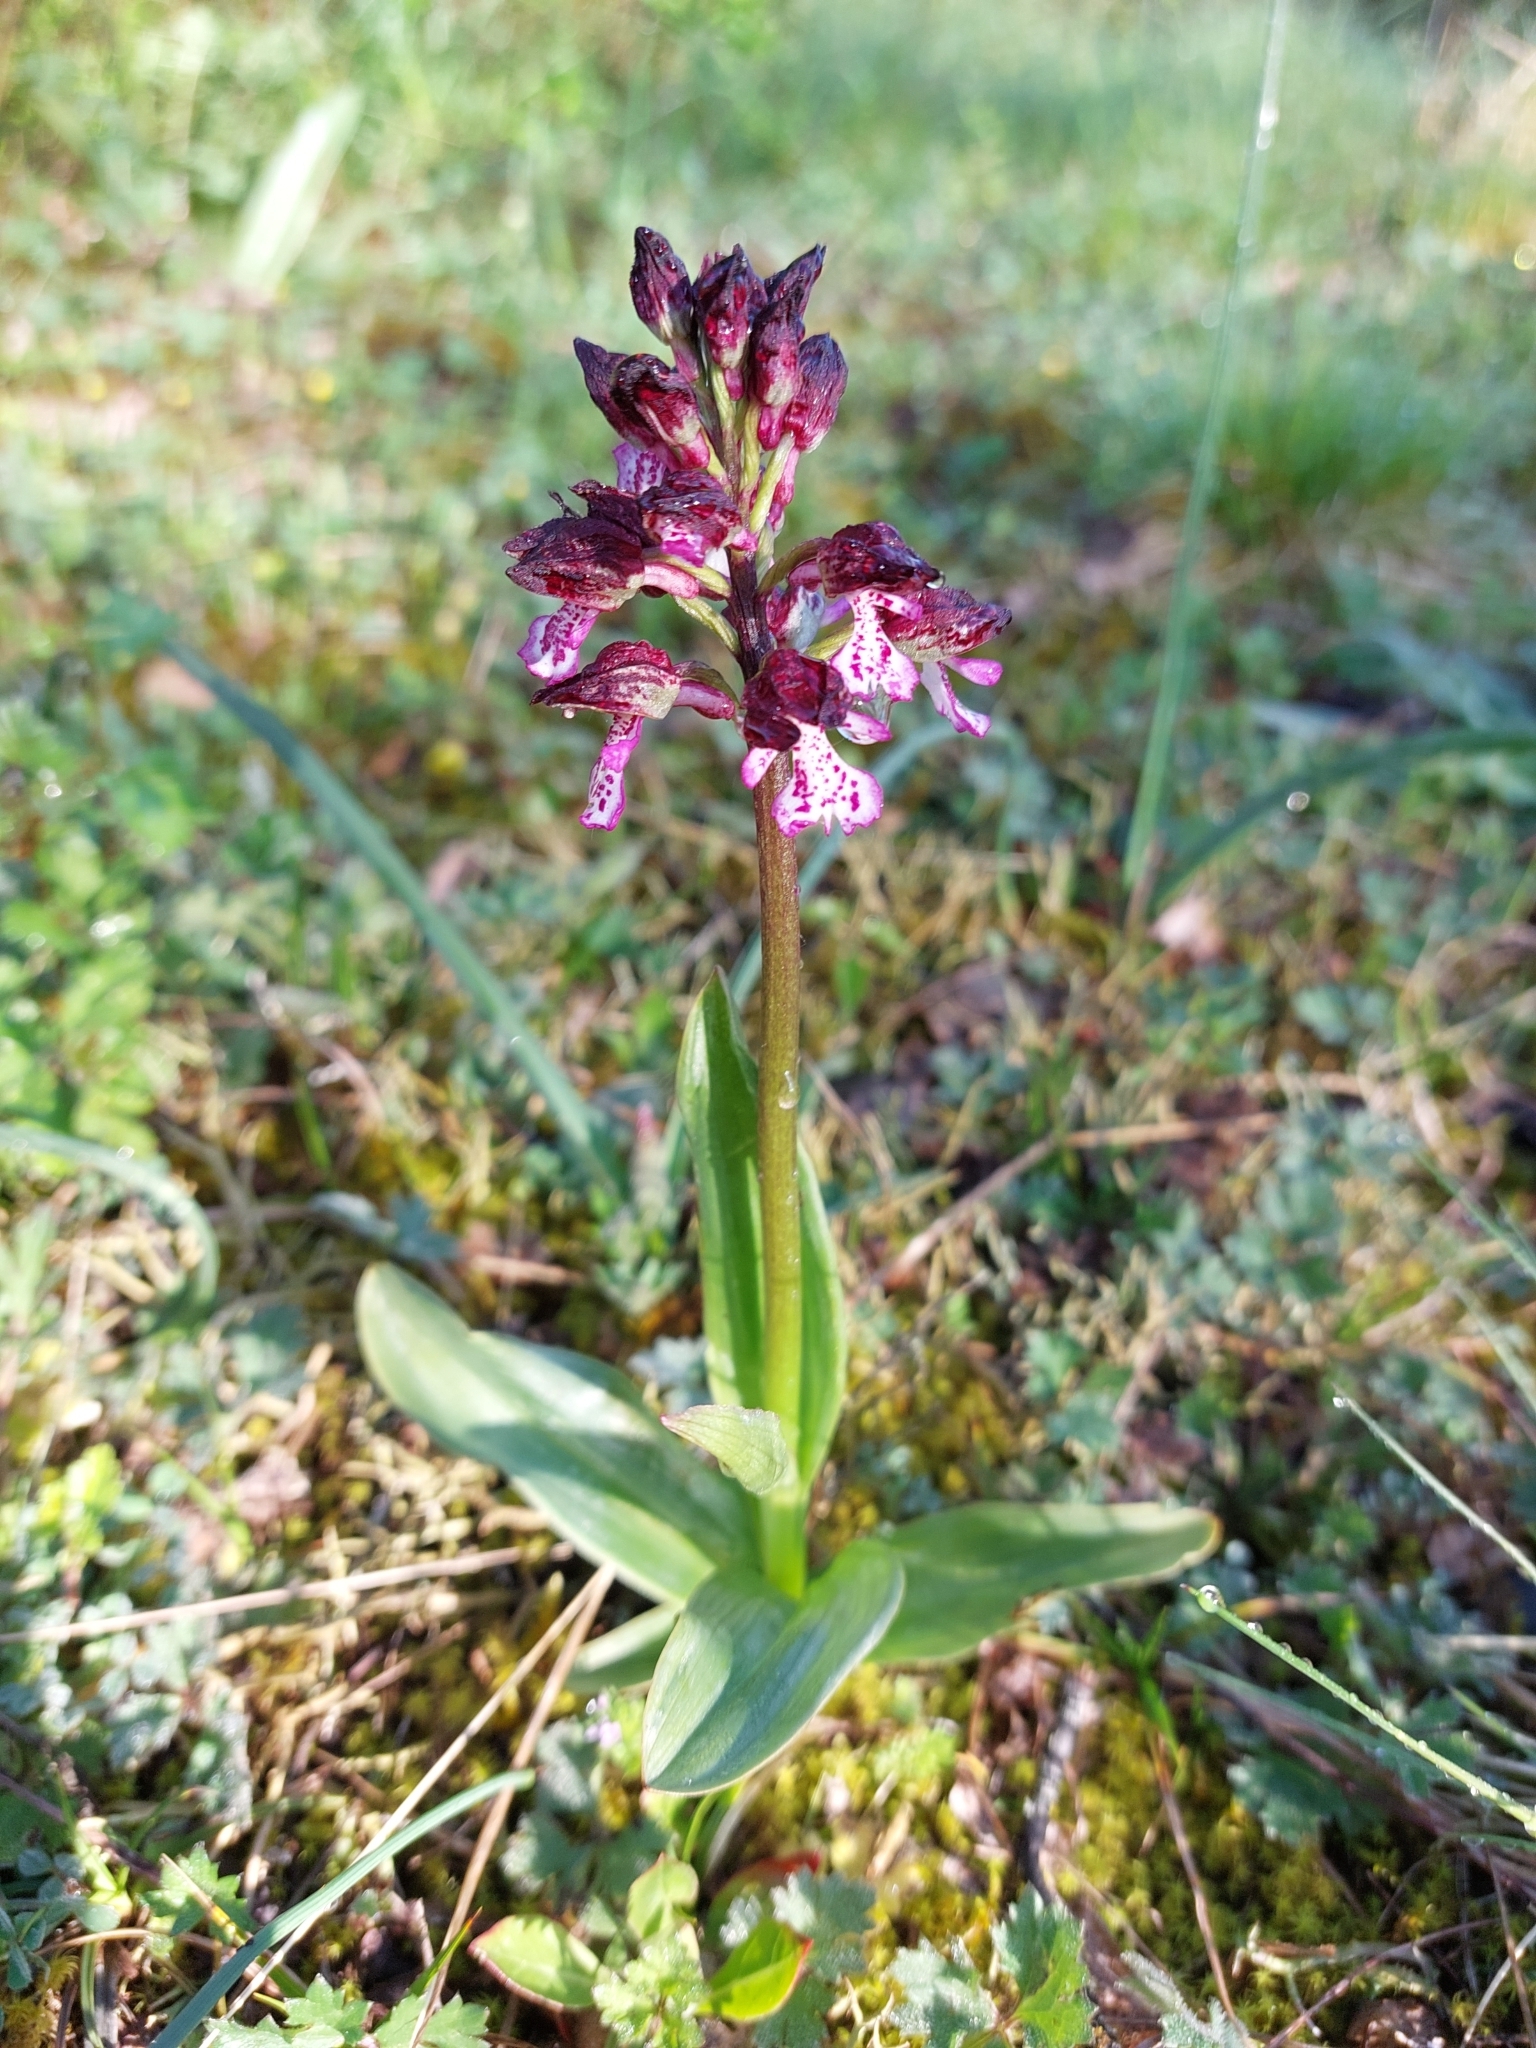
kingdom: Plantae
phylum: Tracheophyta
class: Liliopsida
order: Asparagales
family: Orchidaceae
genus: Orchis
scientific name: Orchis purpurea
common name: Lady orchid
